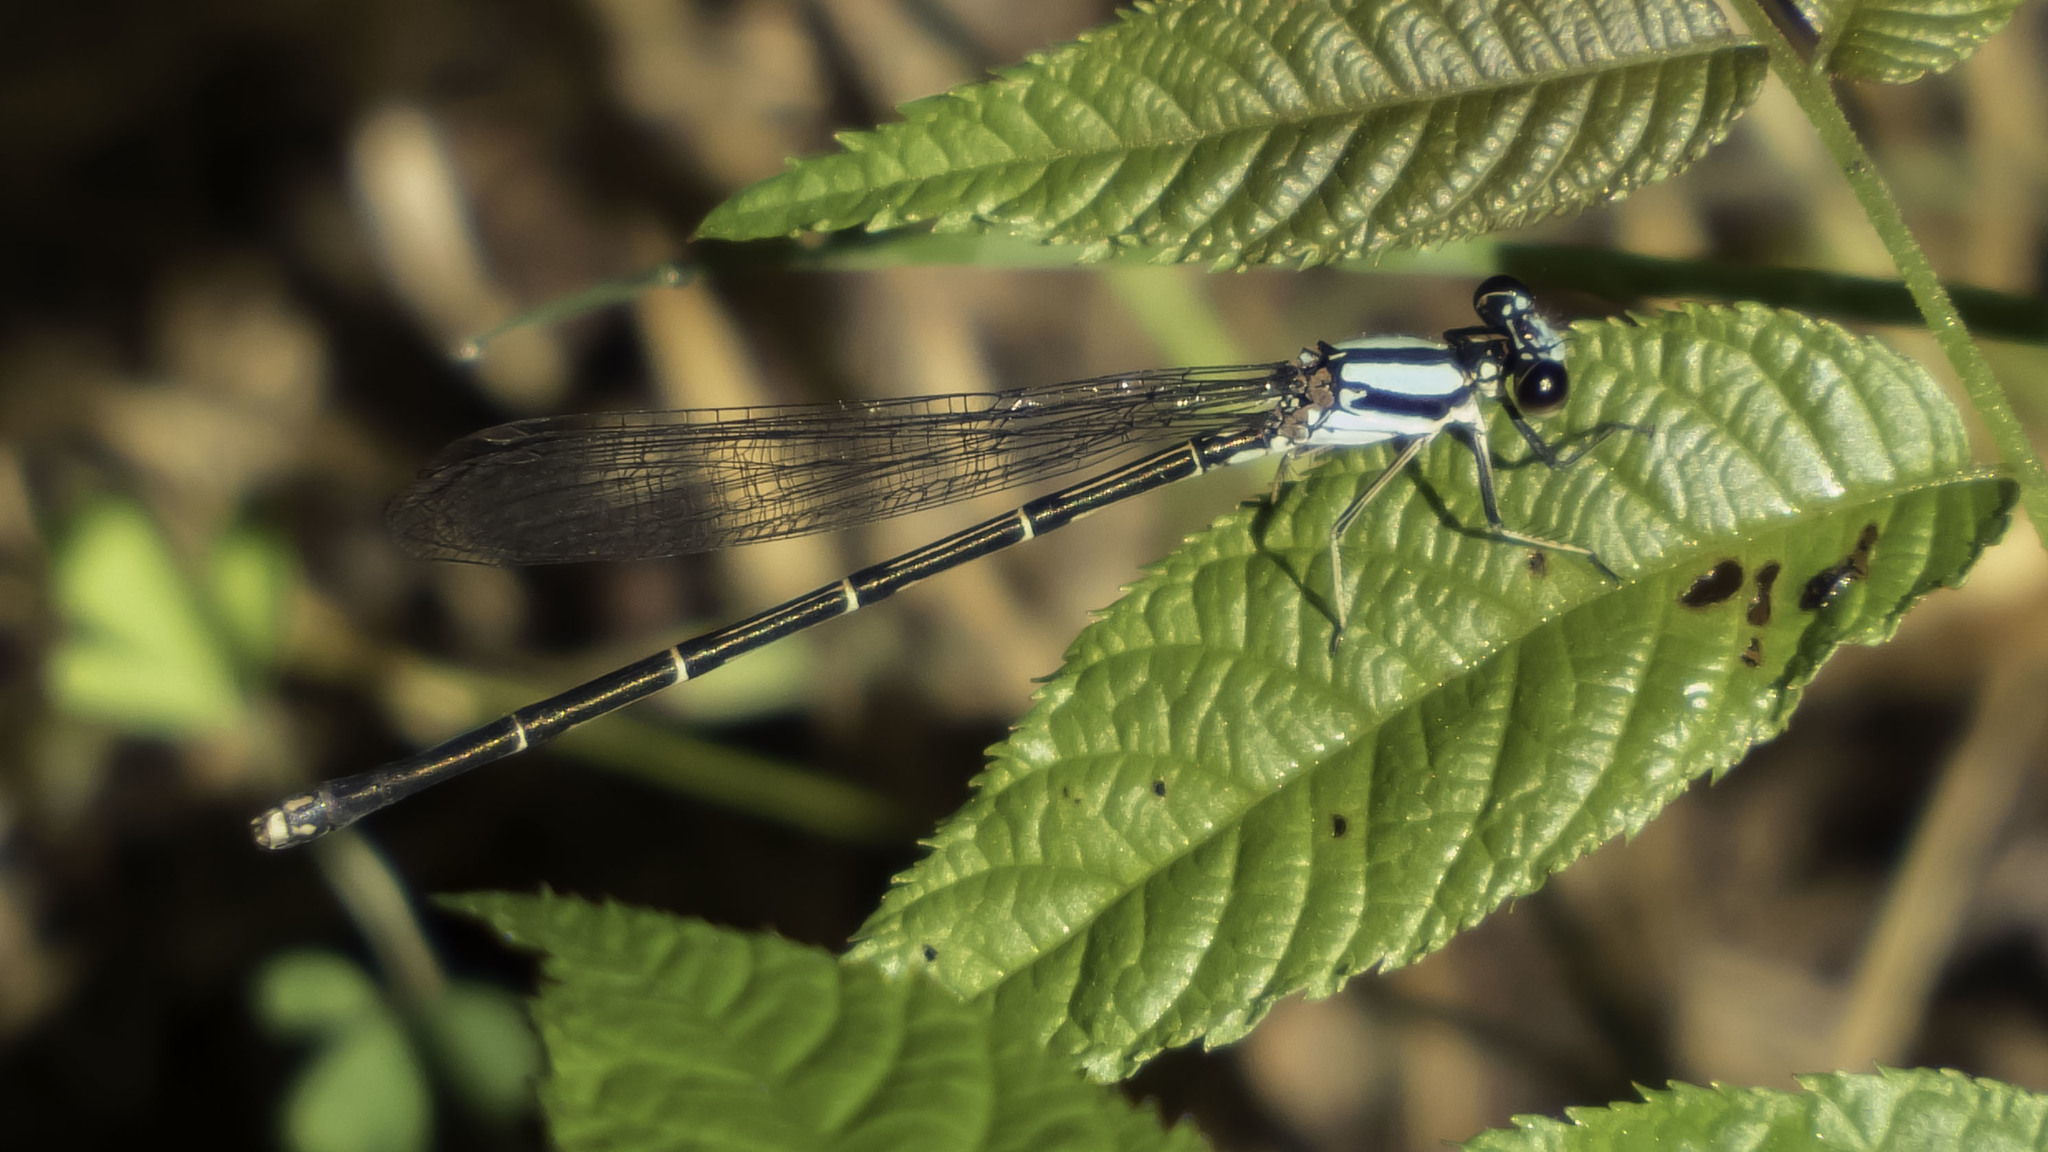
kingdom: Animalia
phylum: Arthropoda
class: Insecta
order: Odonata
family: Coenagrionidae
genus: Argia
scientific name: Argia tibialis
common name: Blue-tipped dancer
